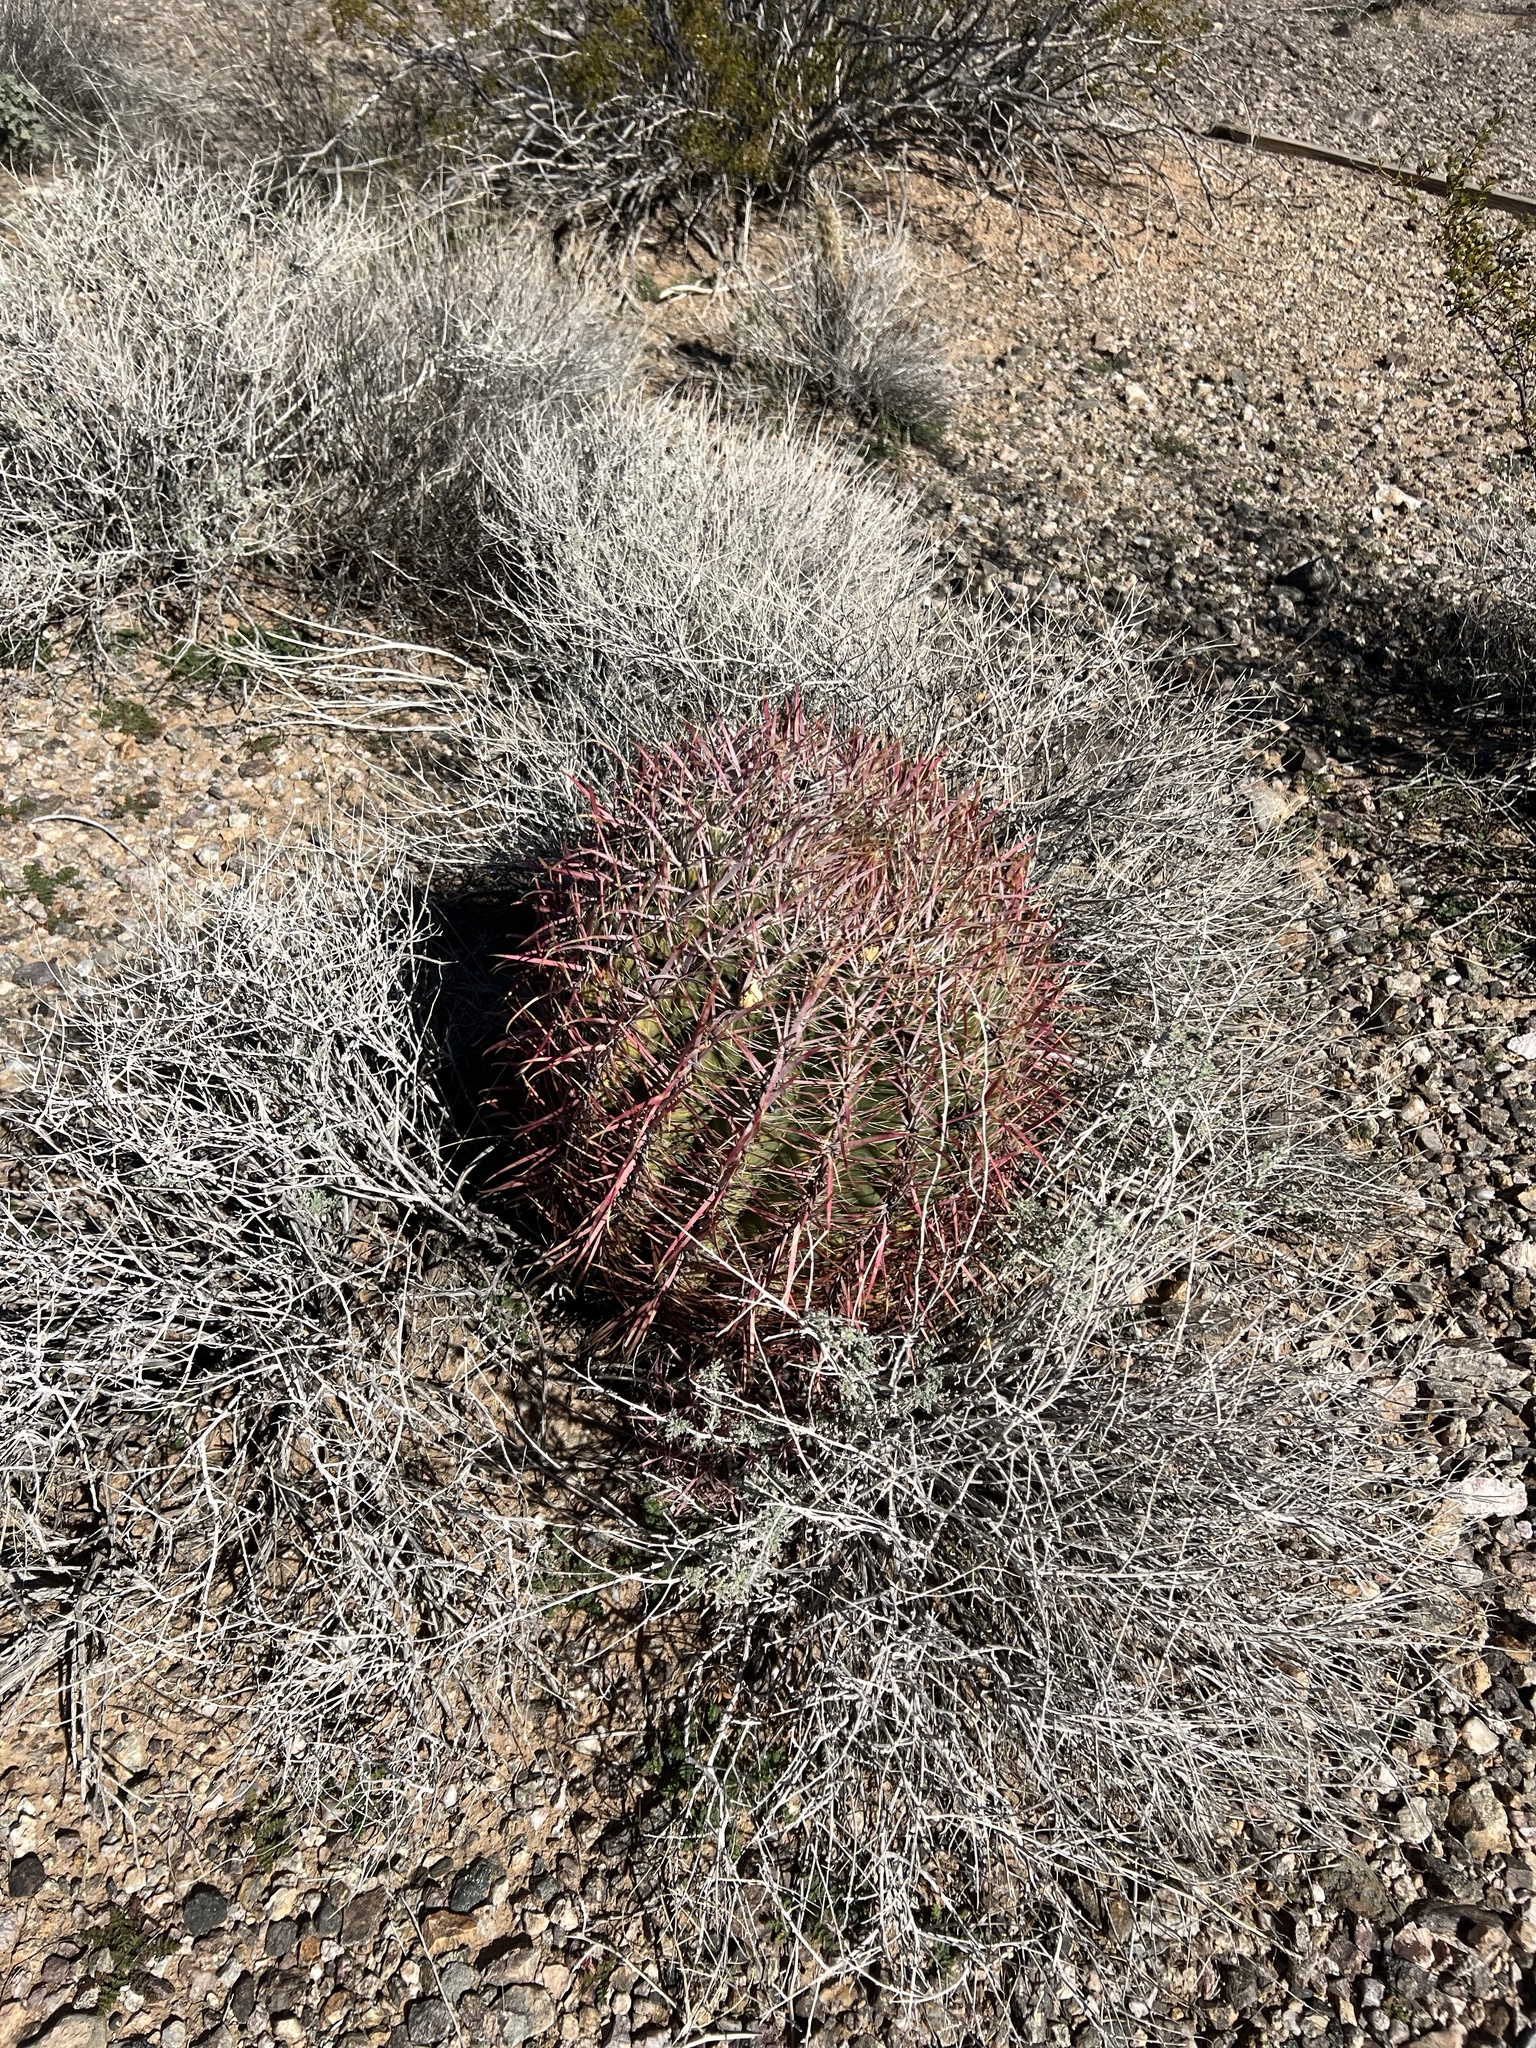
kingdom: Plantae
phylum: Tracheophyta
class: Magnoliopsida
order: Caryophyllales
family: Cactaceae
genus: Ferocactus
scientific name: Ferocactus cylindraceus
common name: California barrel cactus
